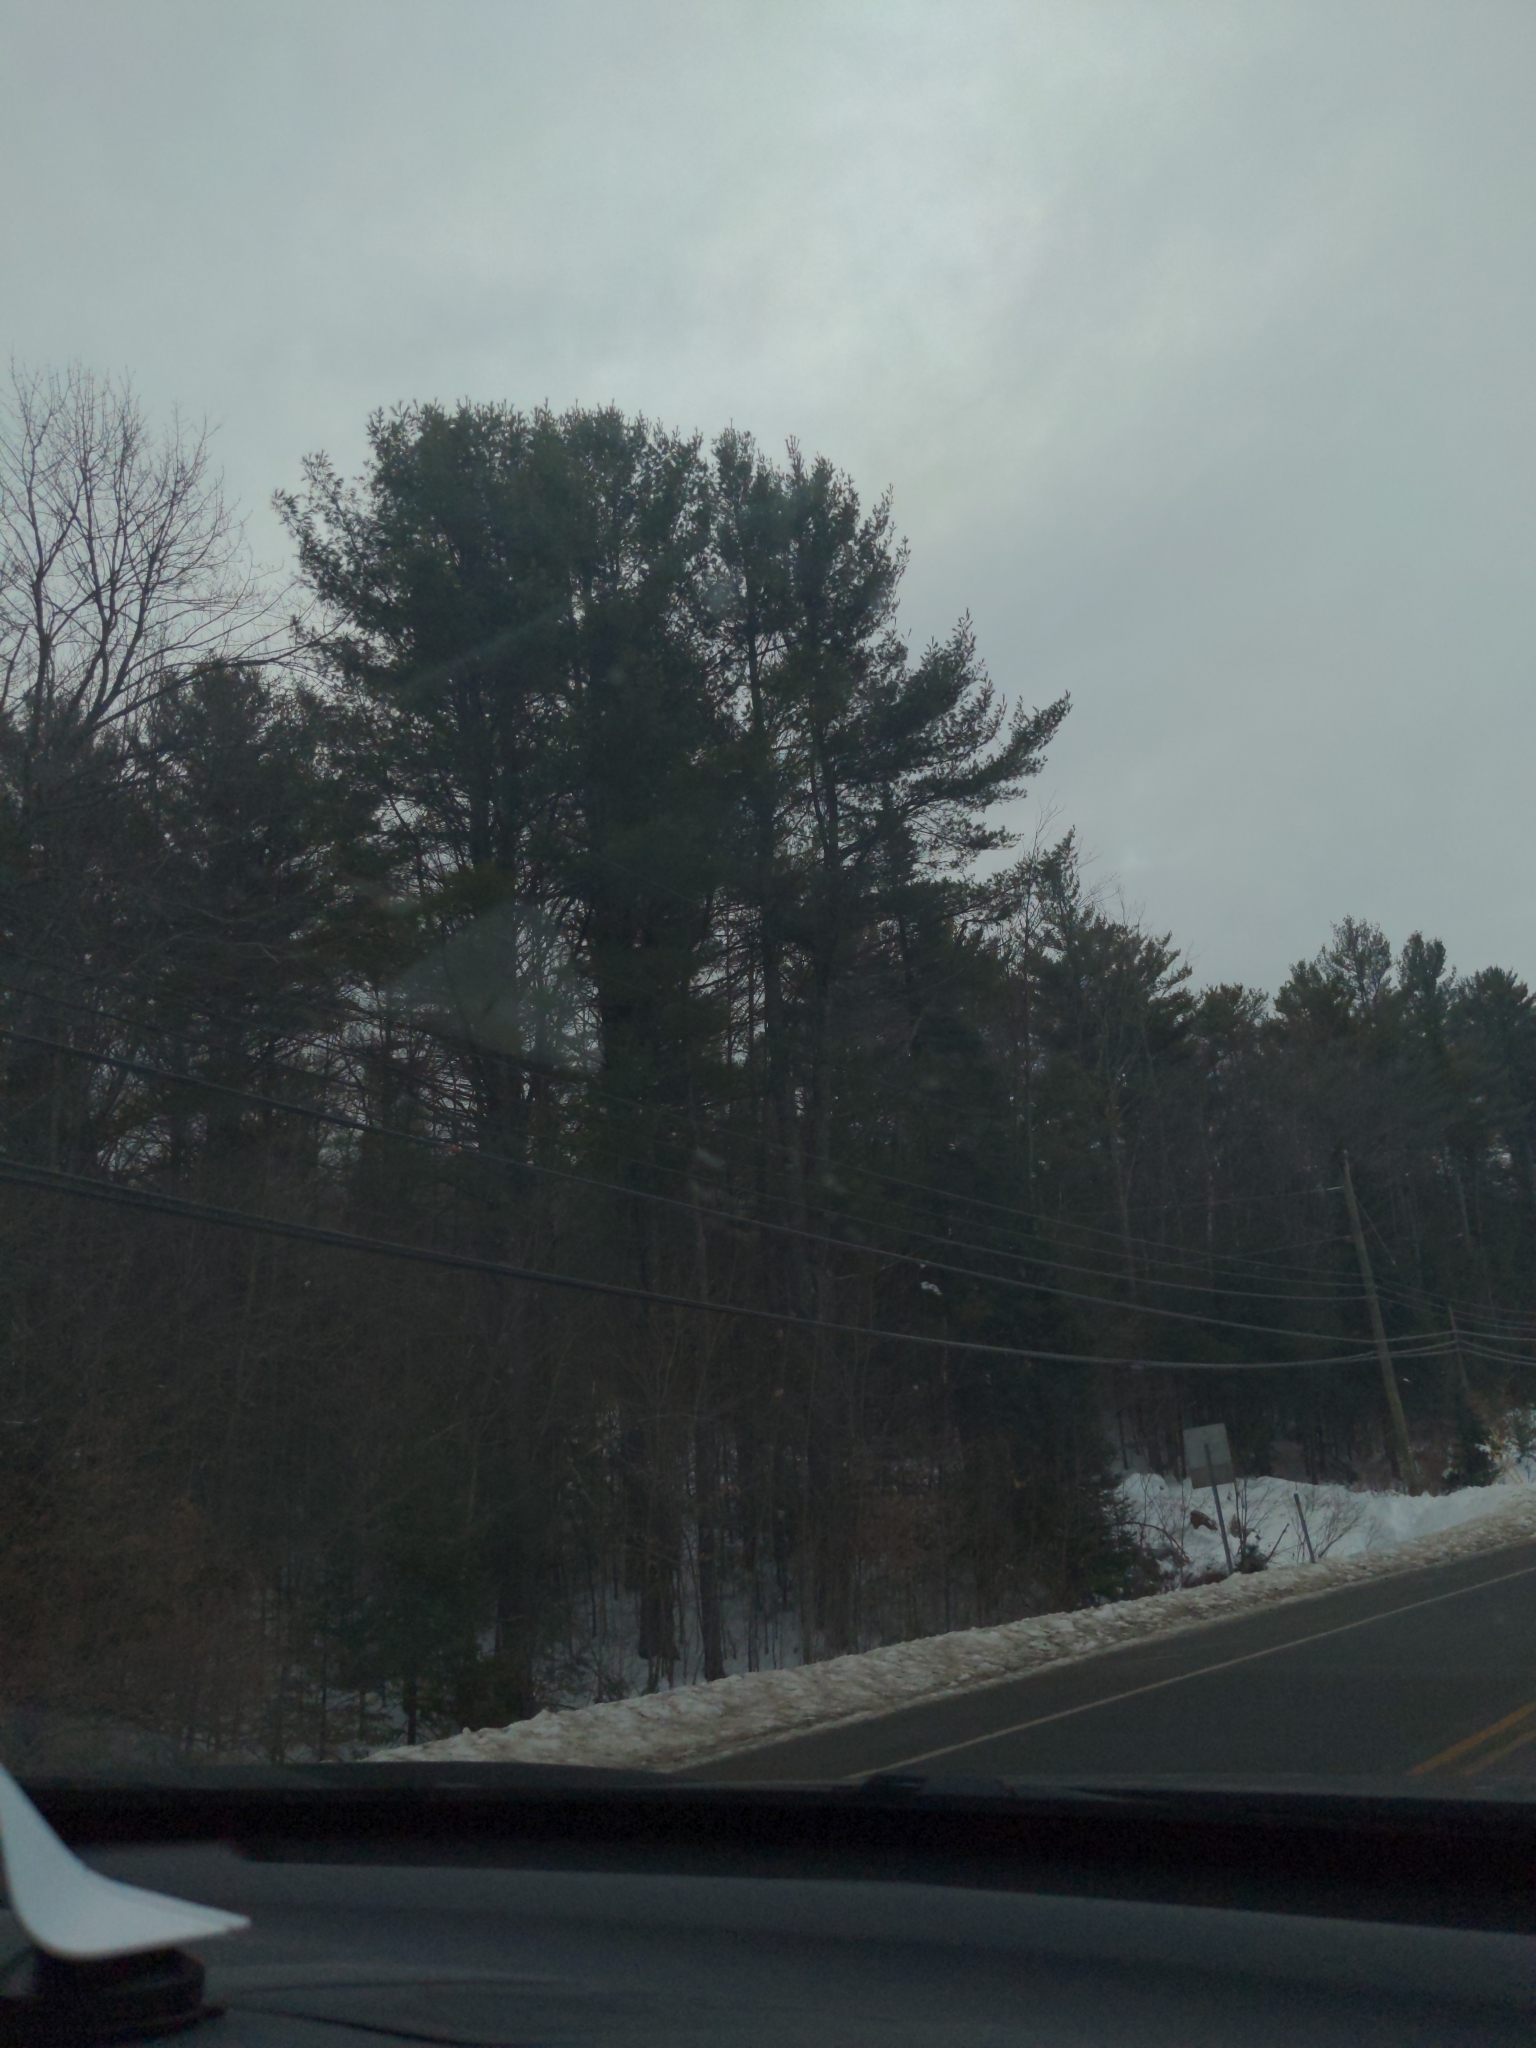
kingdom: Plantae
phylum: Tracheophyta
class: Pinopsida
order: Pinales
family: Pinaceae
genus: Pinus
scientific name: Pinus strobus
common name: Weymouth pine
